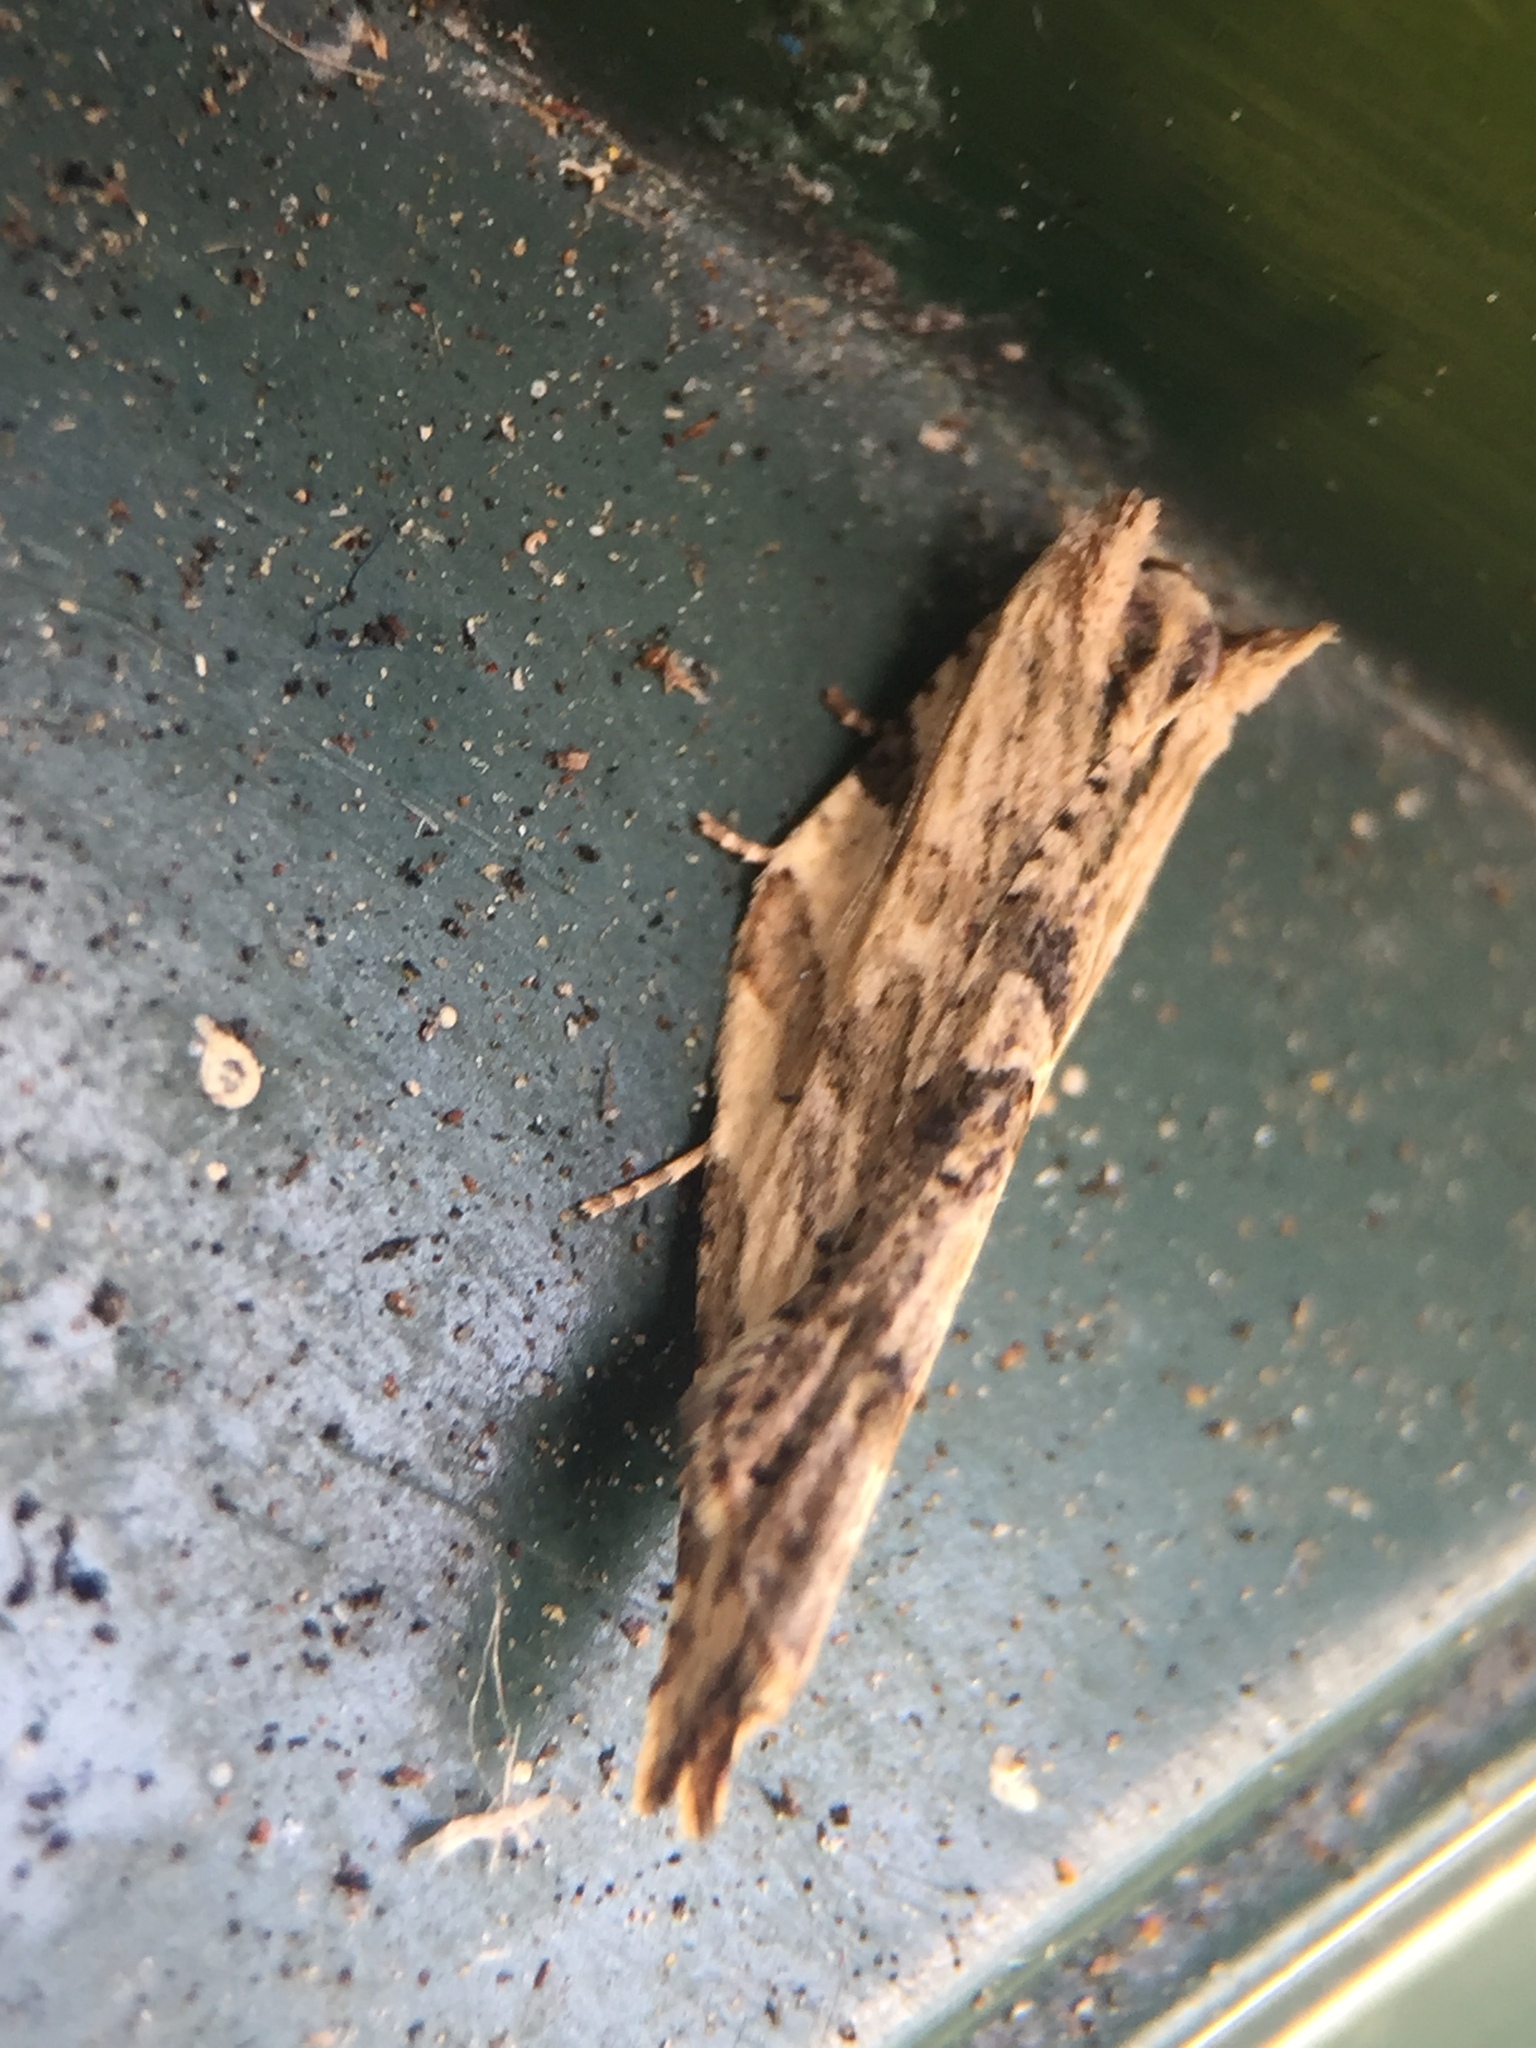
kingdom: Animalia
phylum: Arthropoda
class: Insecta
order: Lepidoptera
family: Tortricidae
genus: Epalxiphora
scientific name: Epalxiphora axenana
